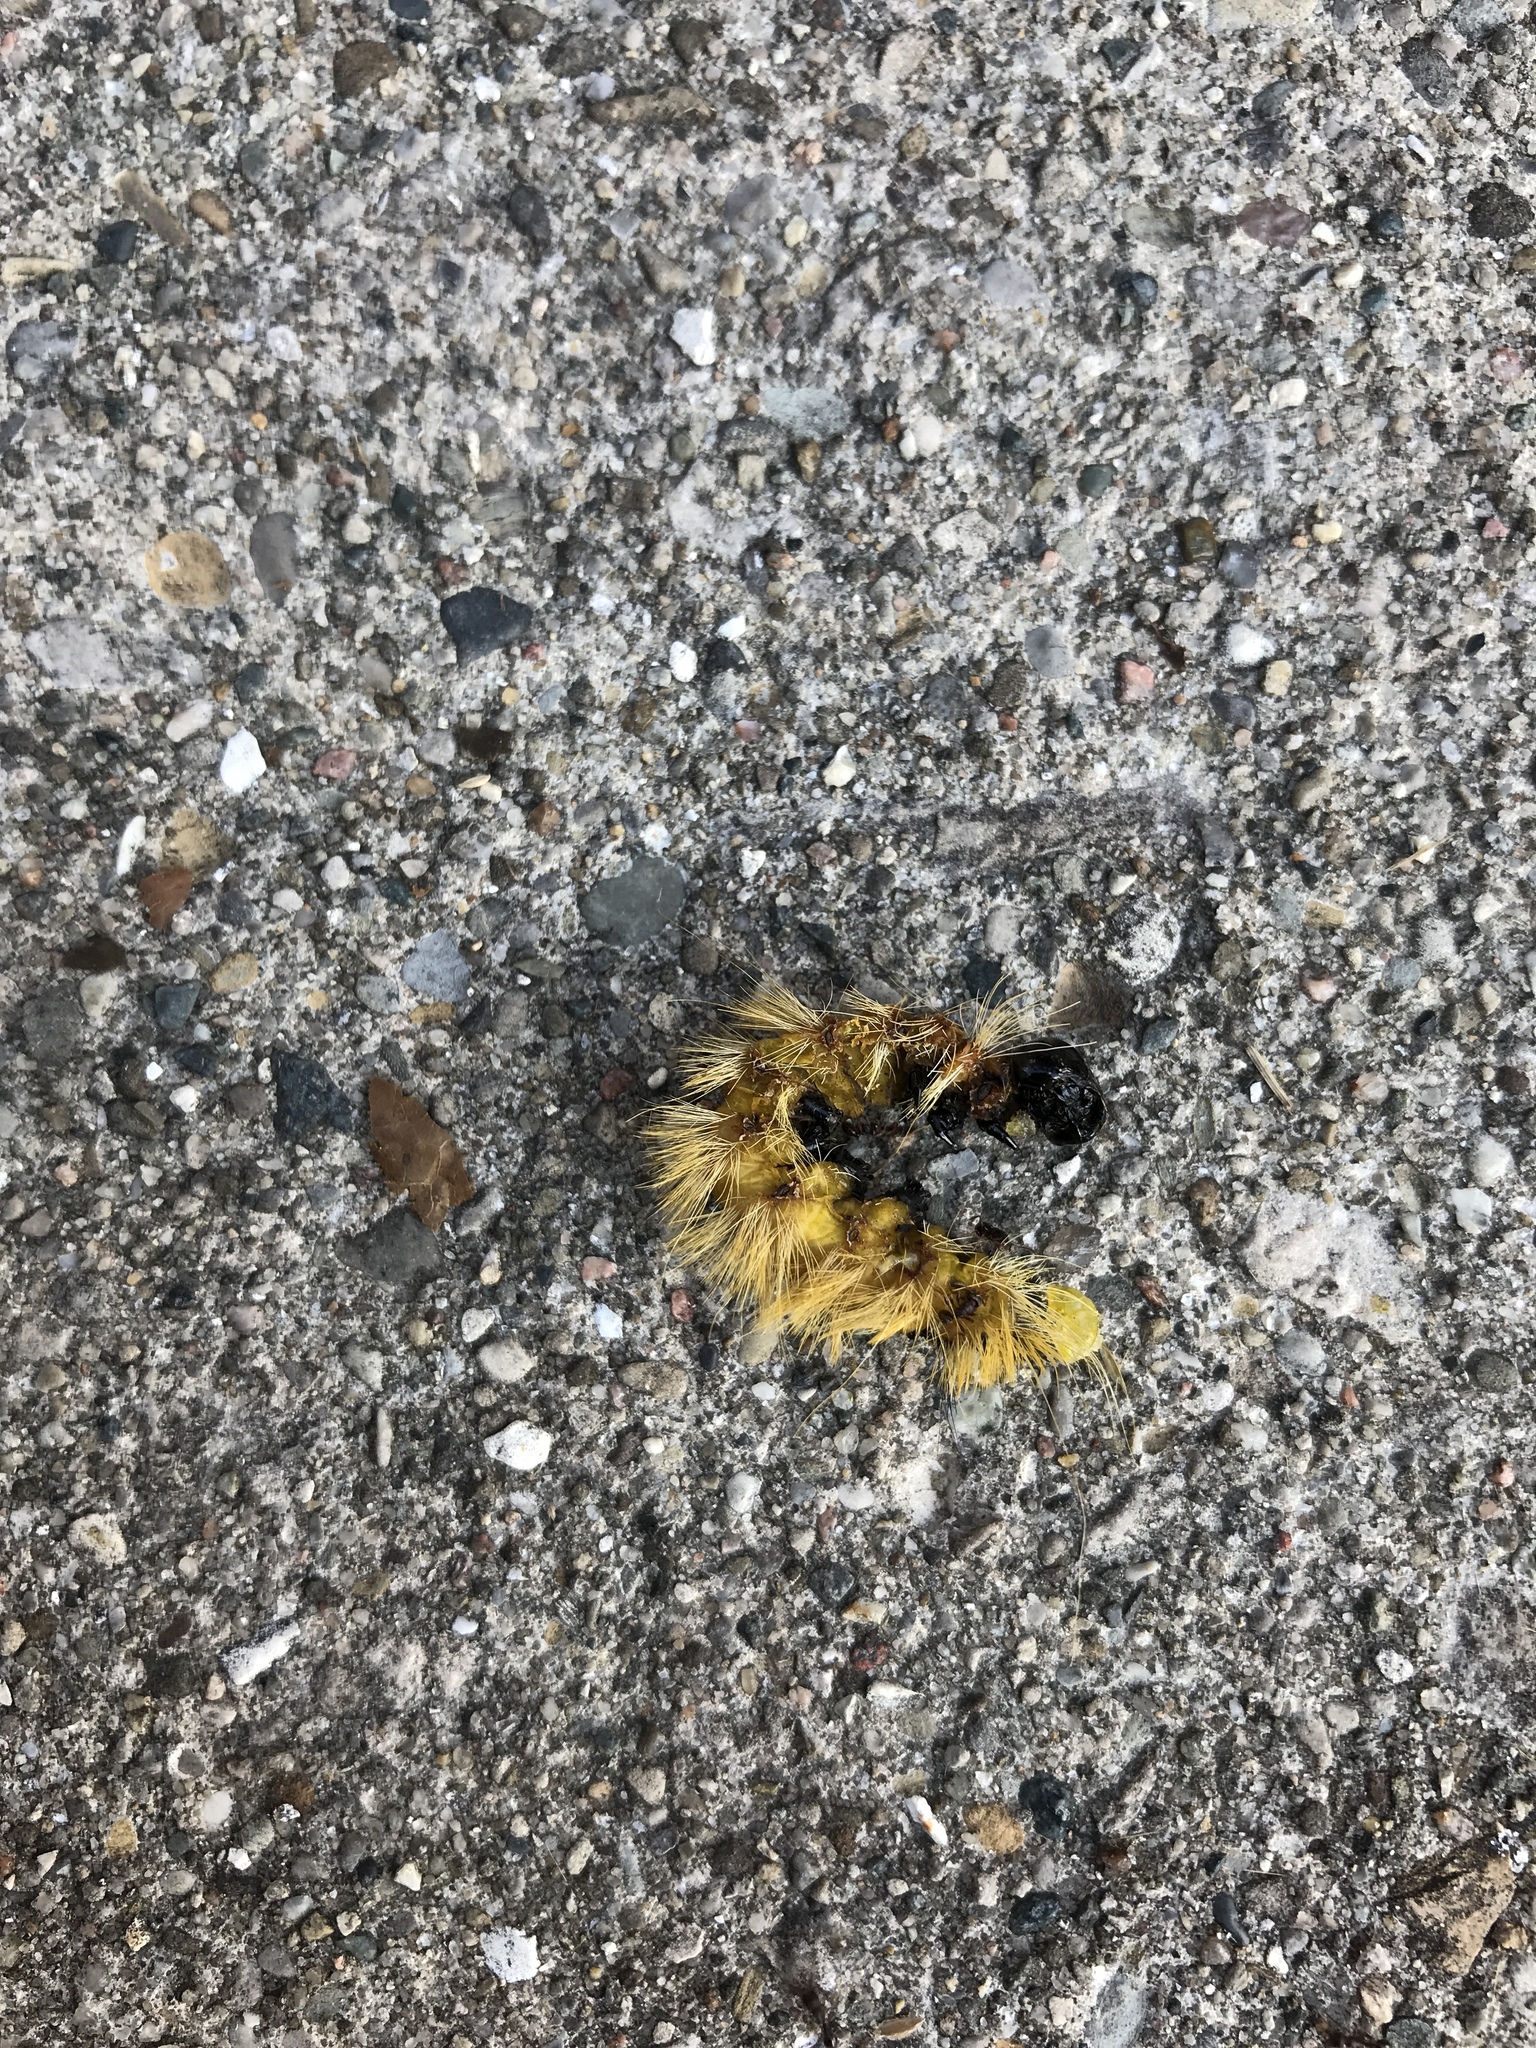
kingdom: Animalia
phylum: Arthropoda
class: Insecta
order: Lepidoptera
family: Erebidae
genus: Halysidota
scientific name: Halysidota tessellaris
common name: Banded tussock moth
